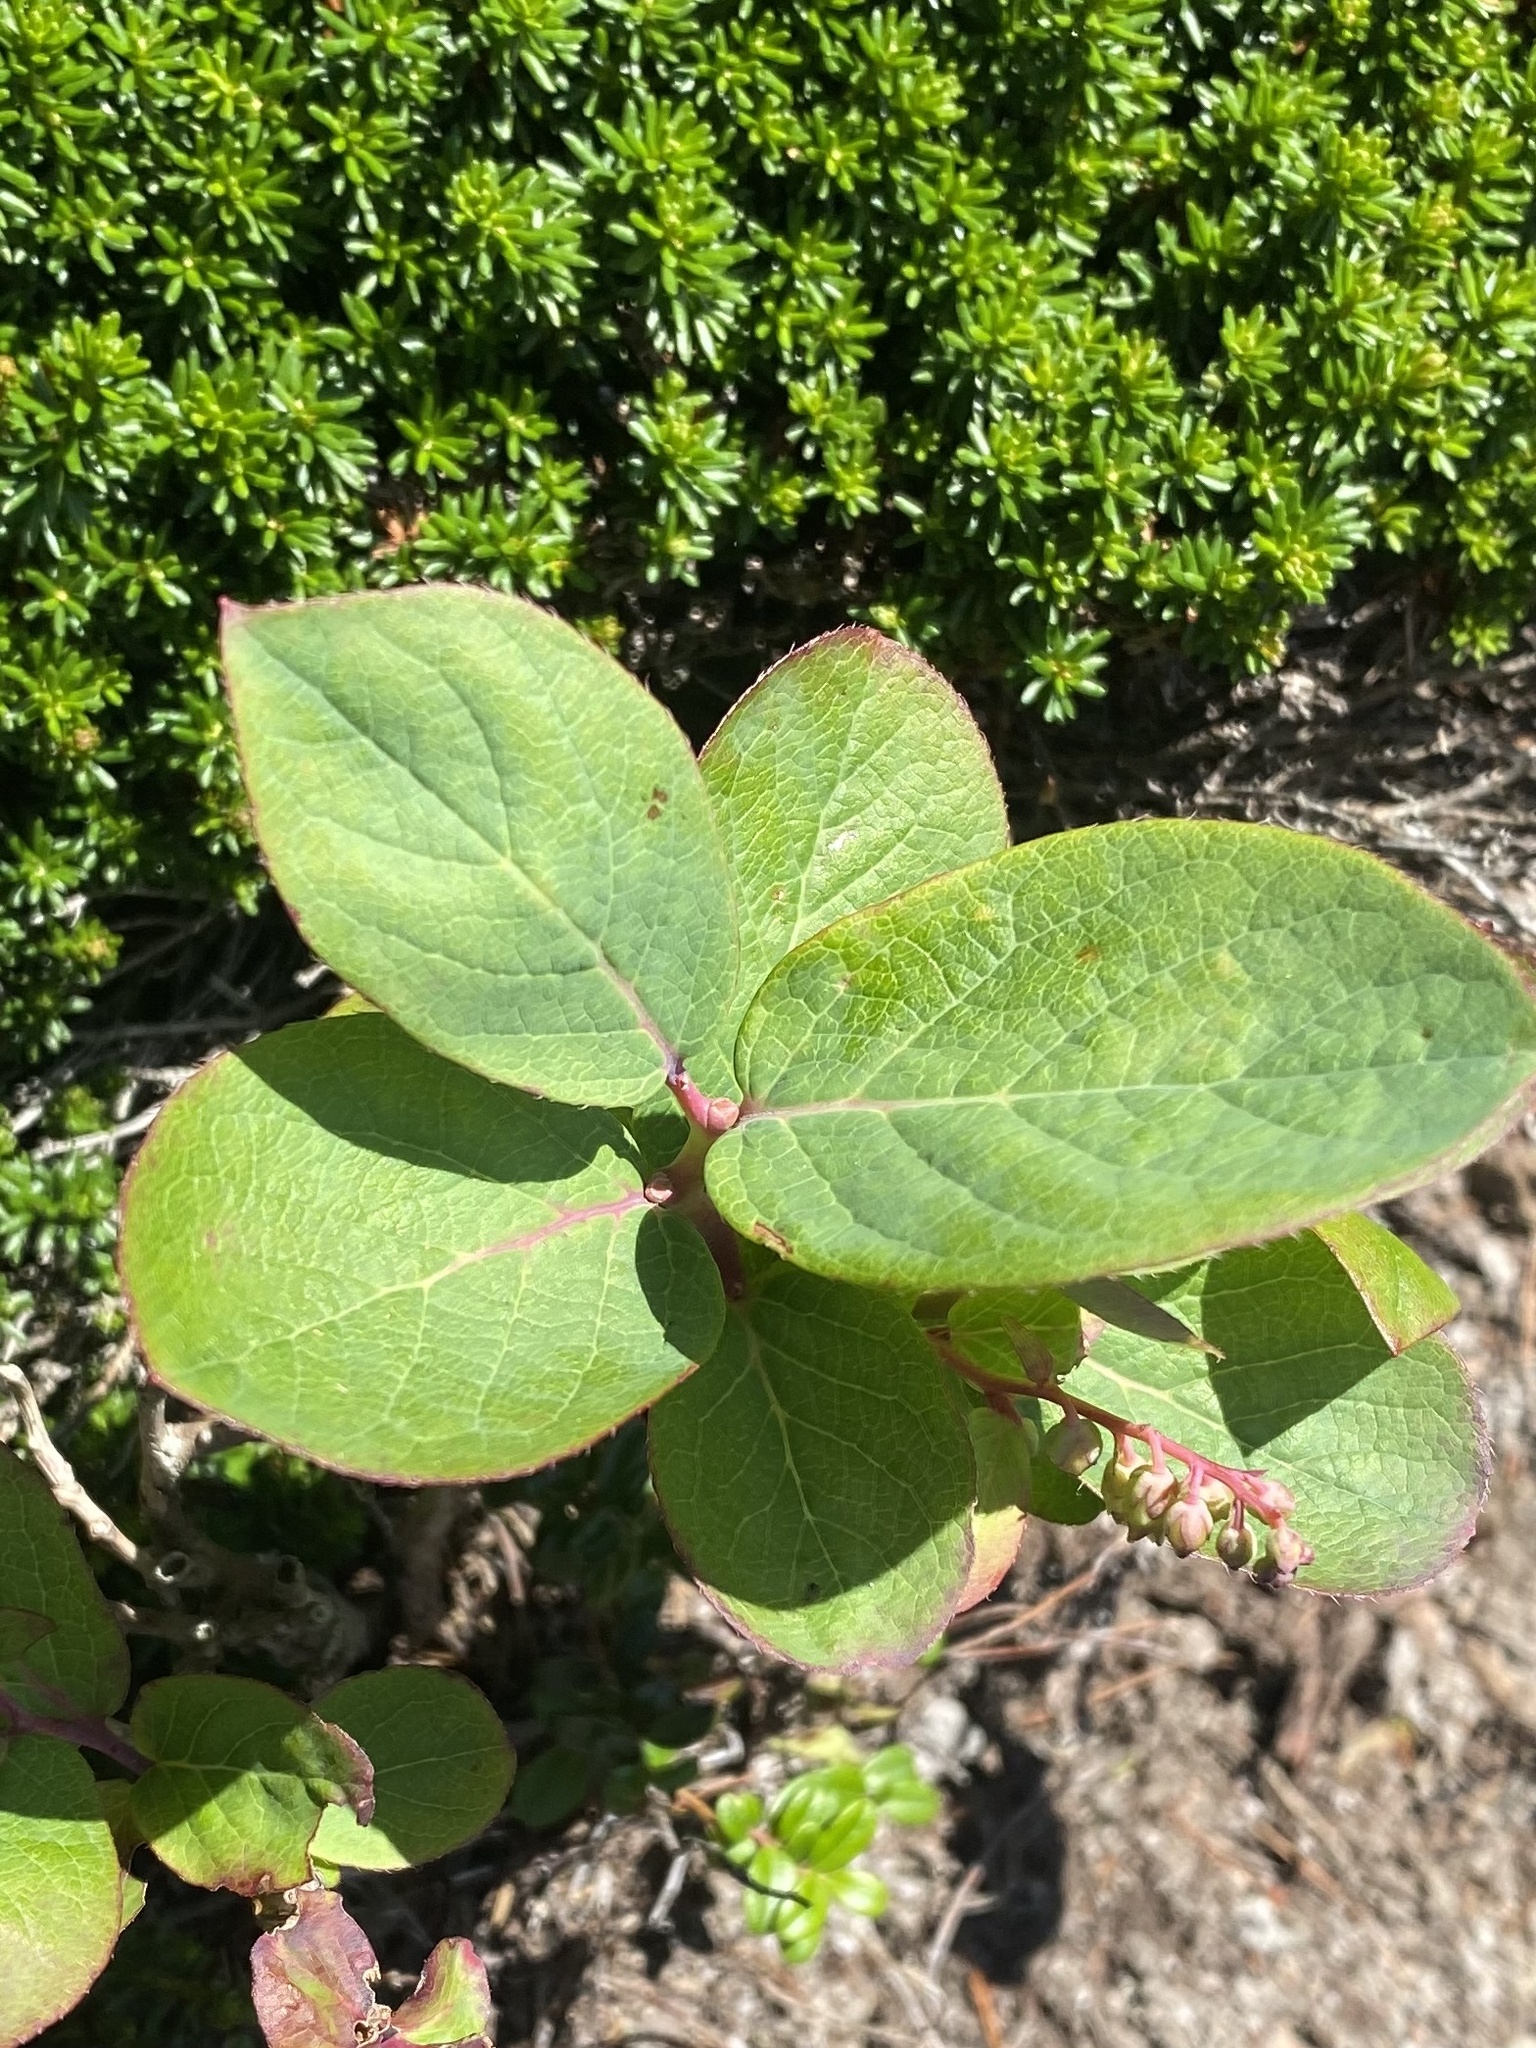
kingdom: Plantae
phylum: Tracheophyta
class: Magnoliopsida
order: Ericales
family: Ericaceae
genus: Leucothoe
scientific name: Leucothoe grayana
